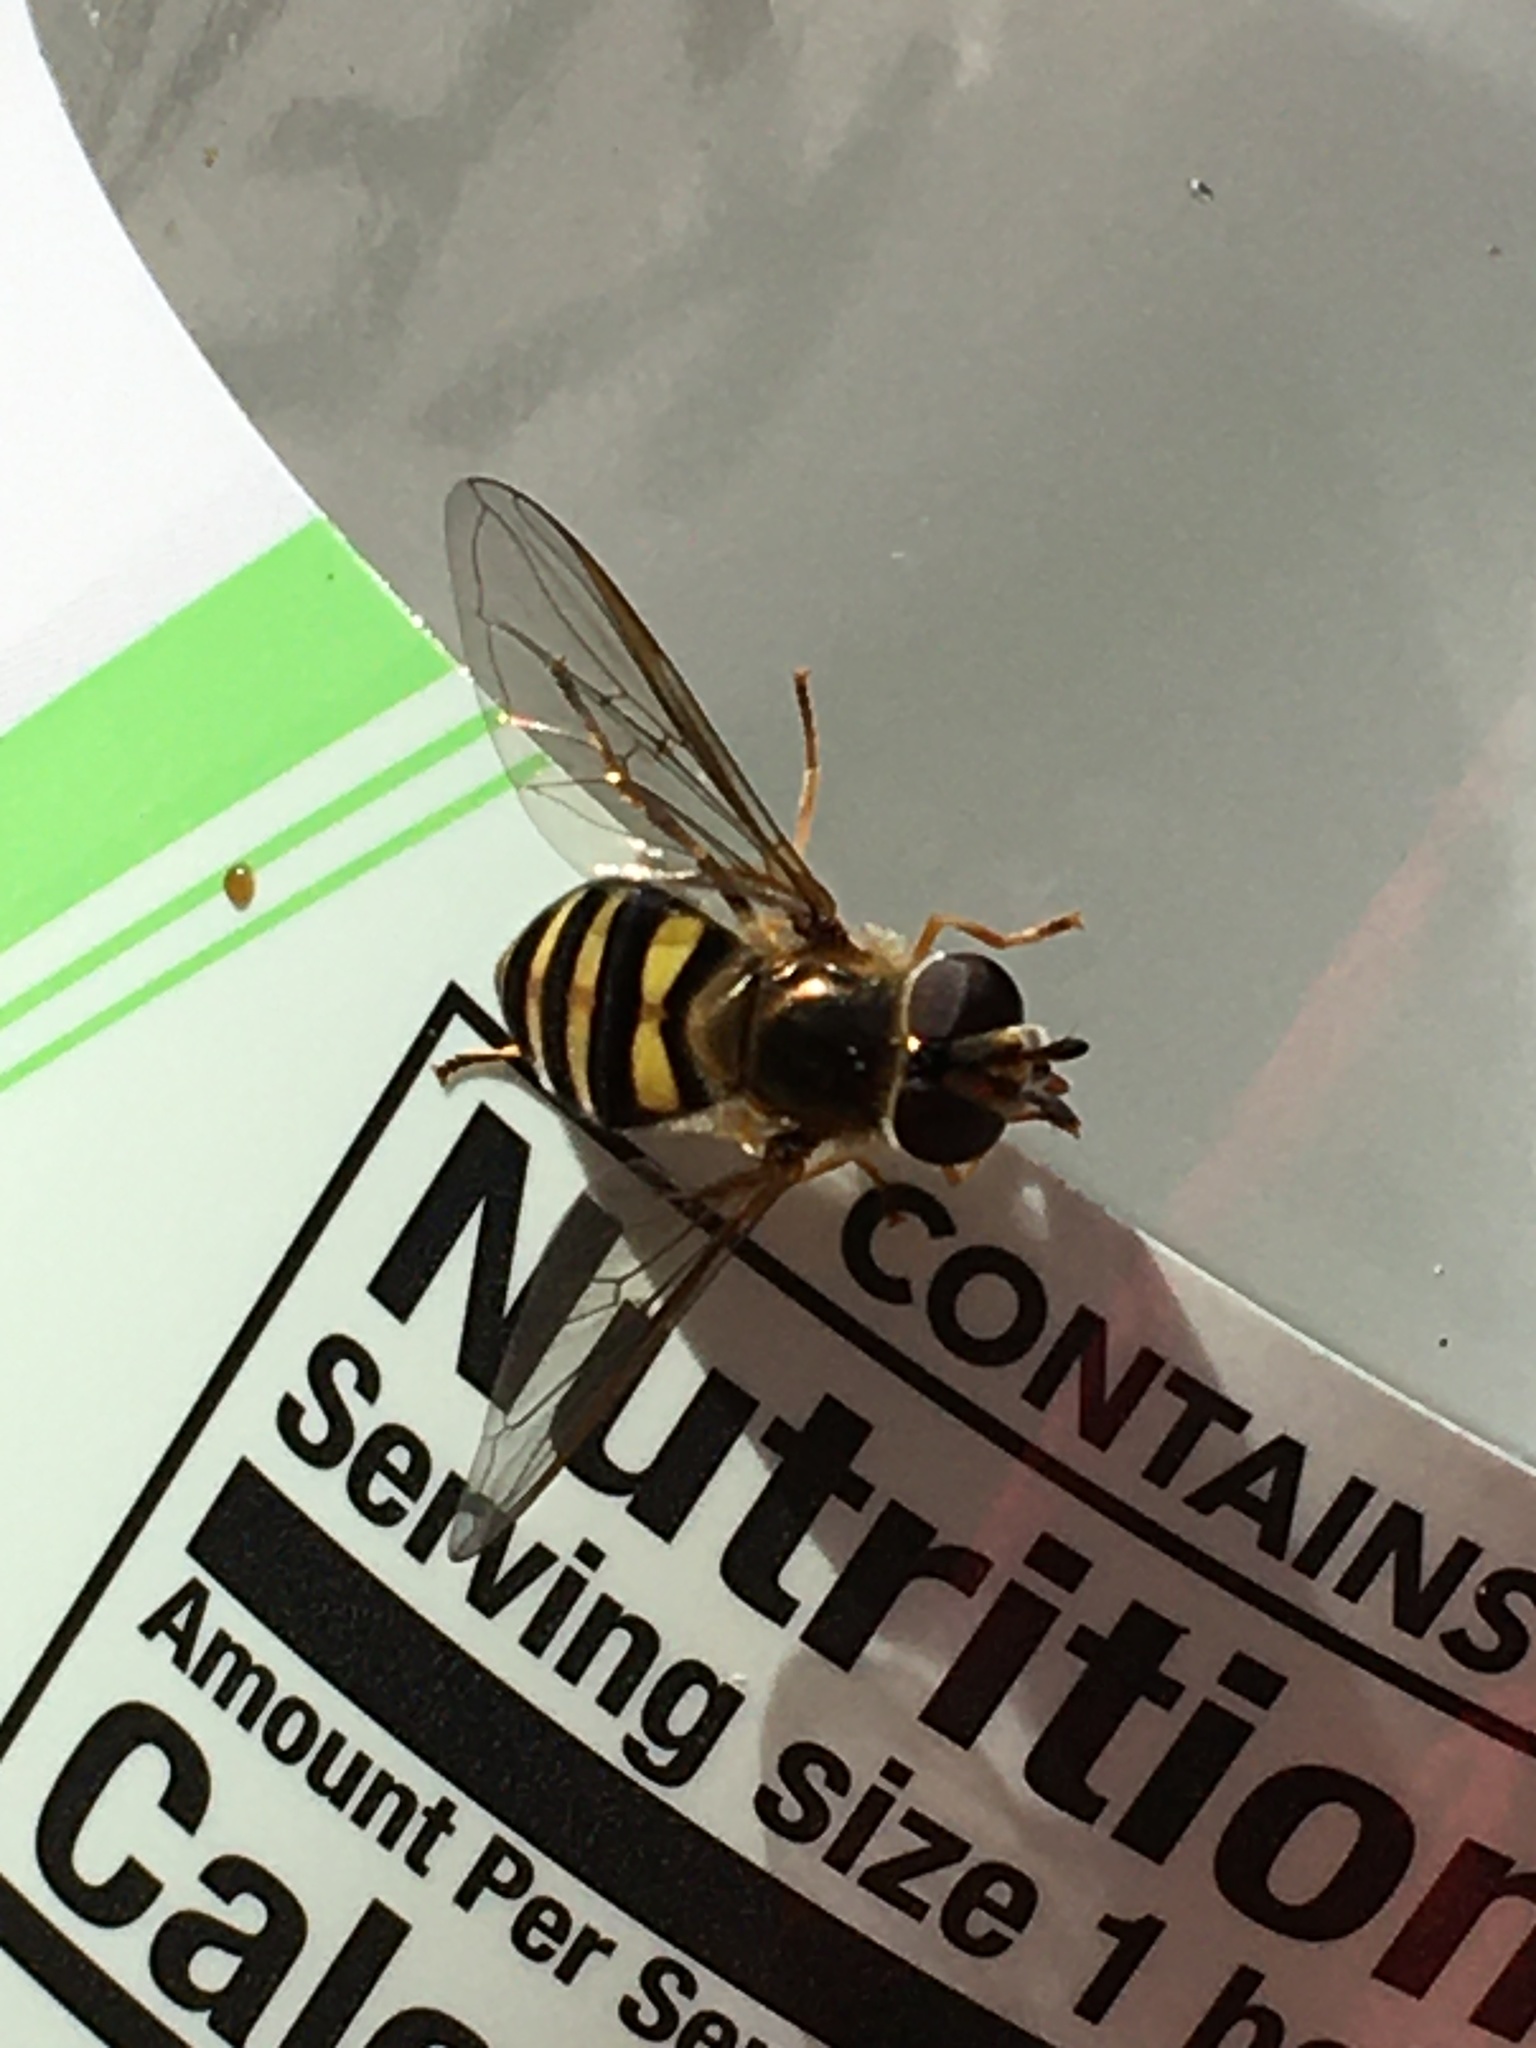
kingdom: Animalia
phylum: Arthropoda
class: Insecta
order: Diptera
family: Syrphidae
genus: Eupeodes
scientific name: Eupeodes
